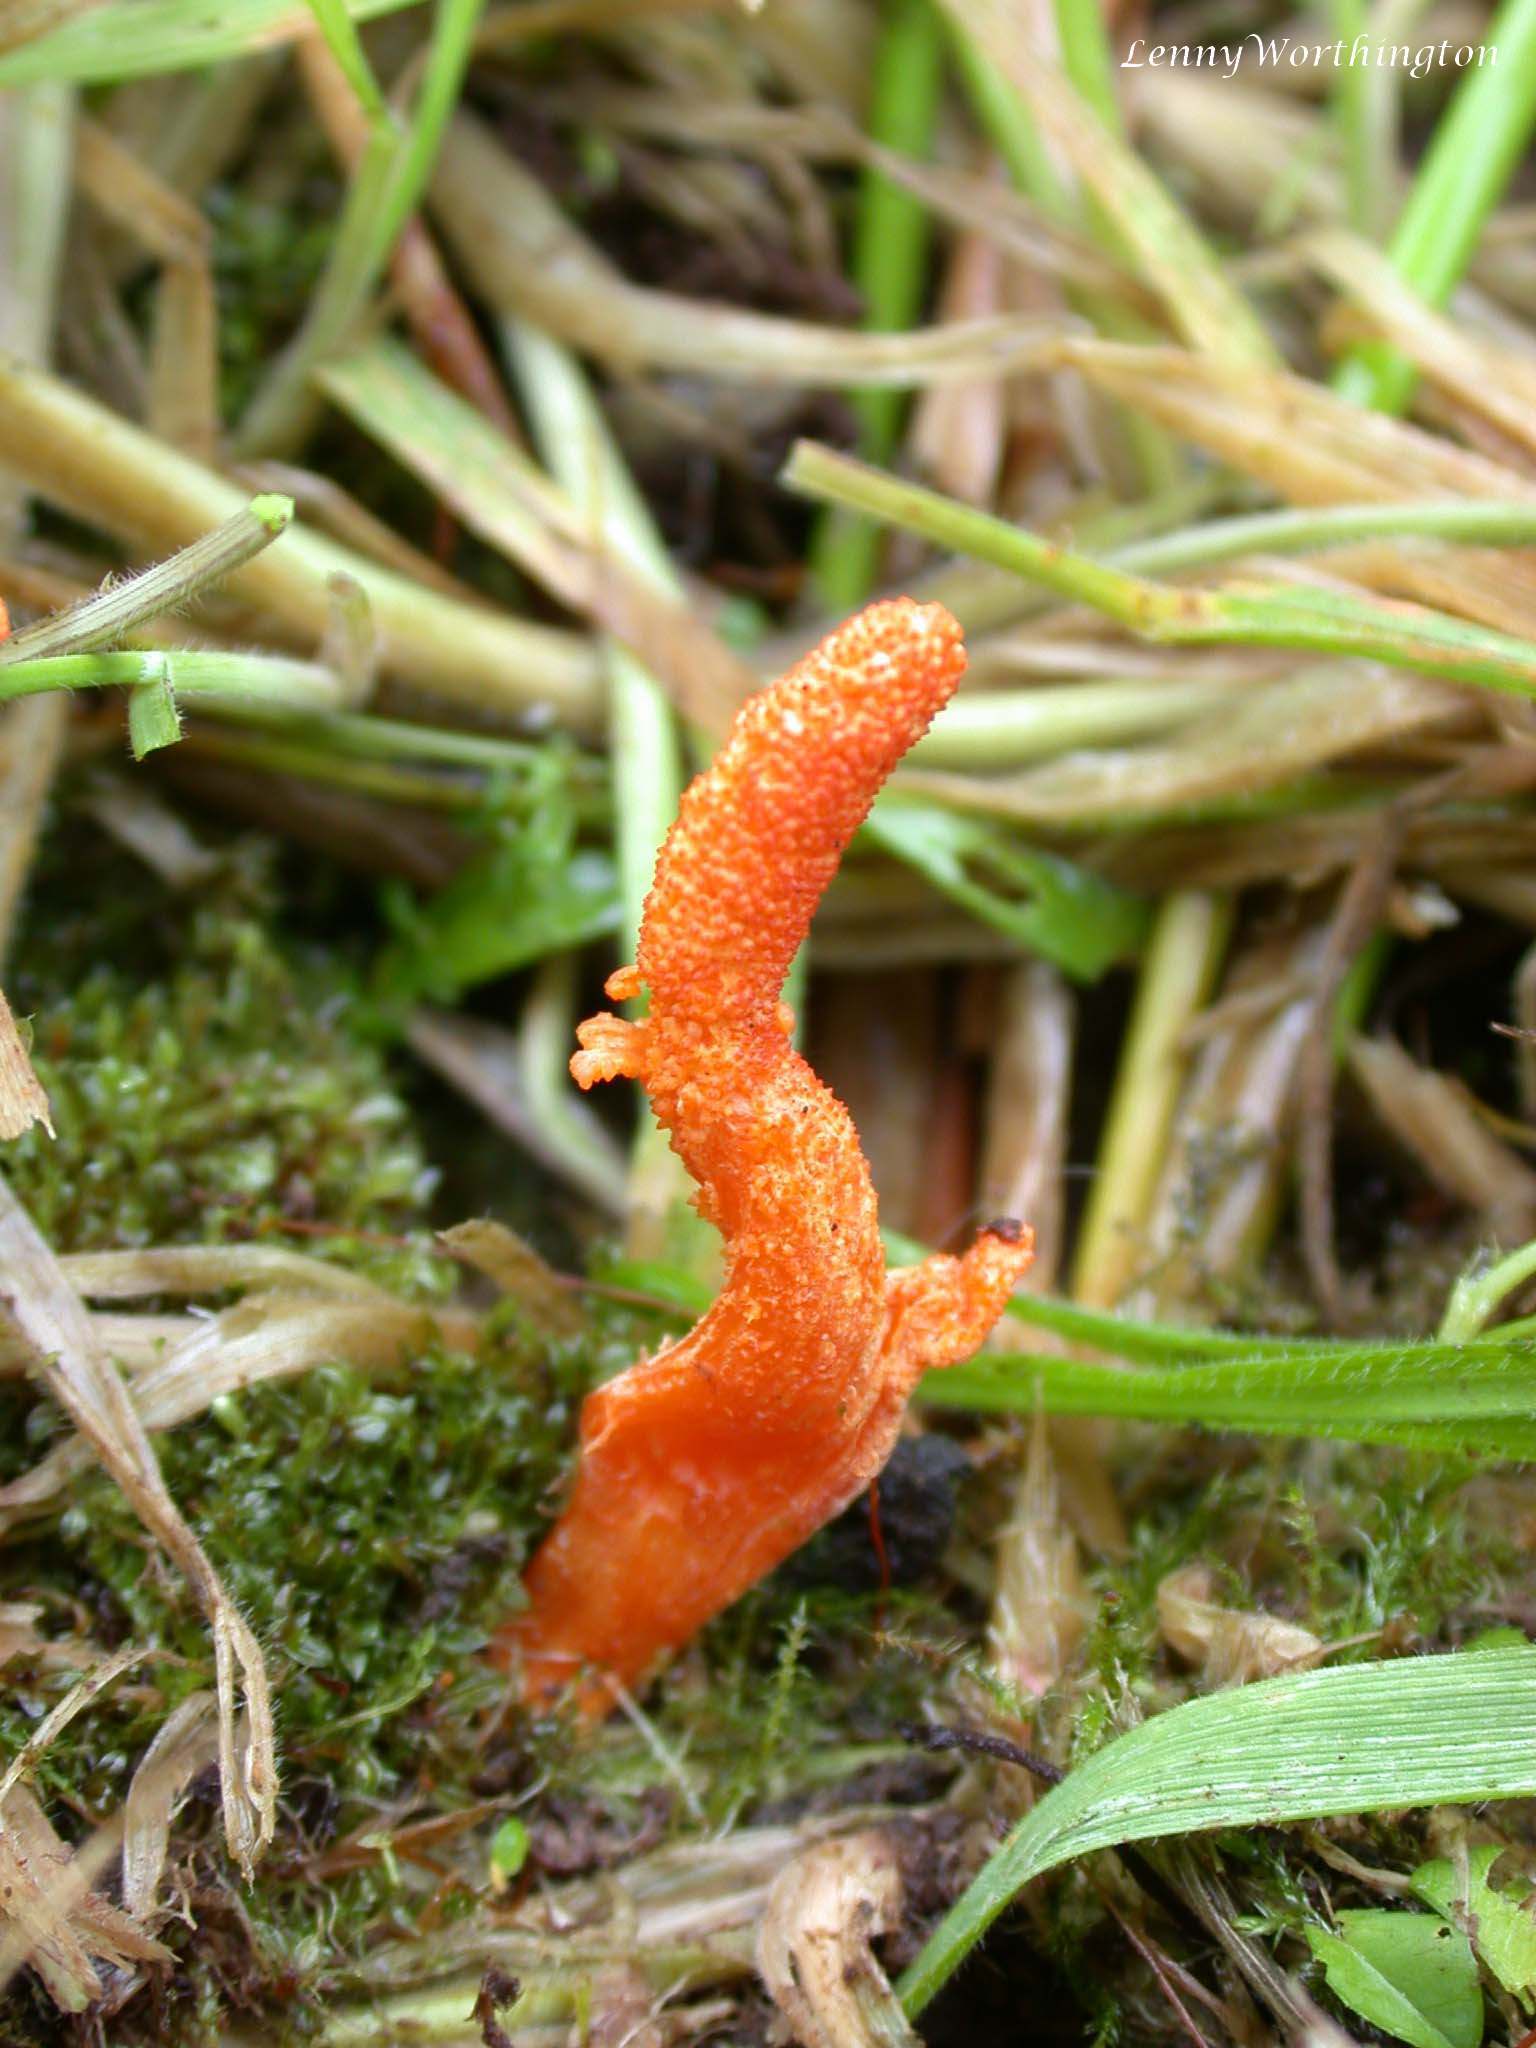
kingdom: Fungi
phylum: Ascomycota
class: Sordariomycetes
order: Hypocreales
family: Cordycipitaceae
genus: Cordyceps
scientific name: Cordyceps militaris
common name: Scarlet caterpillar fungus
